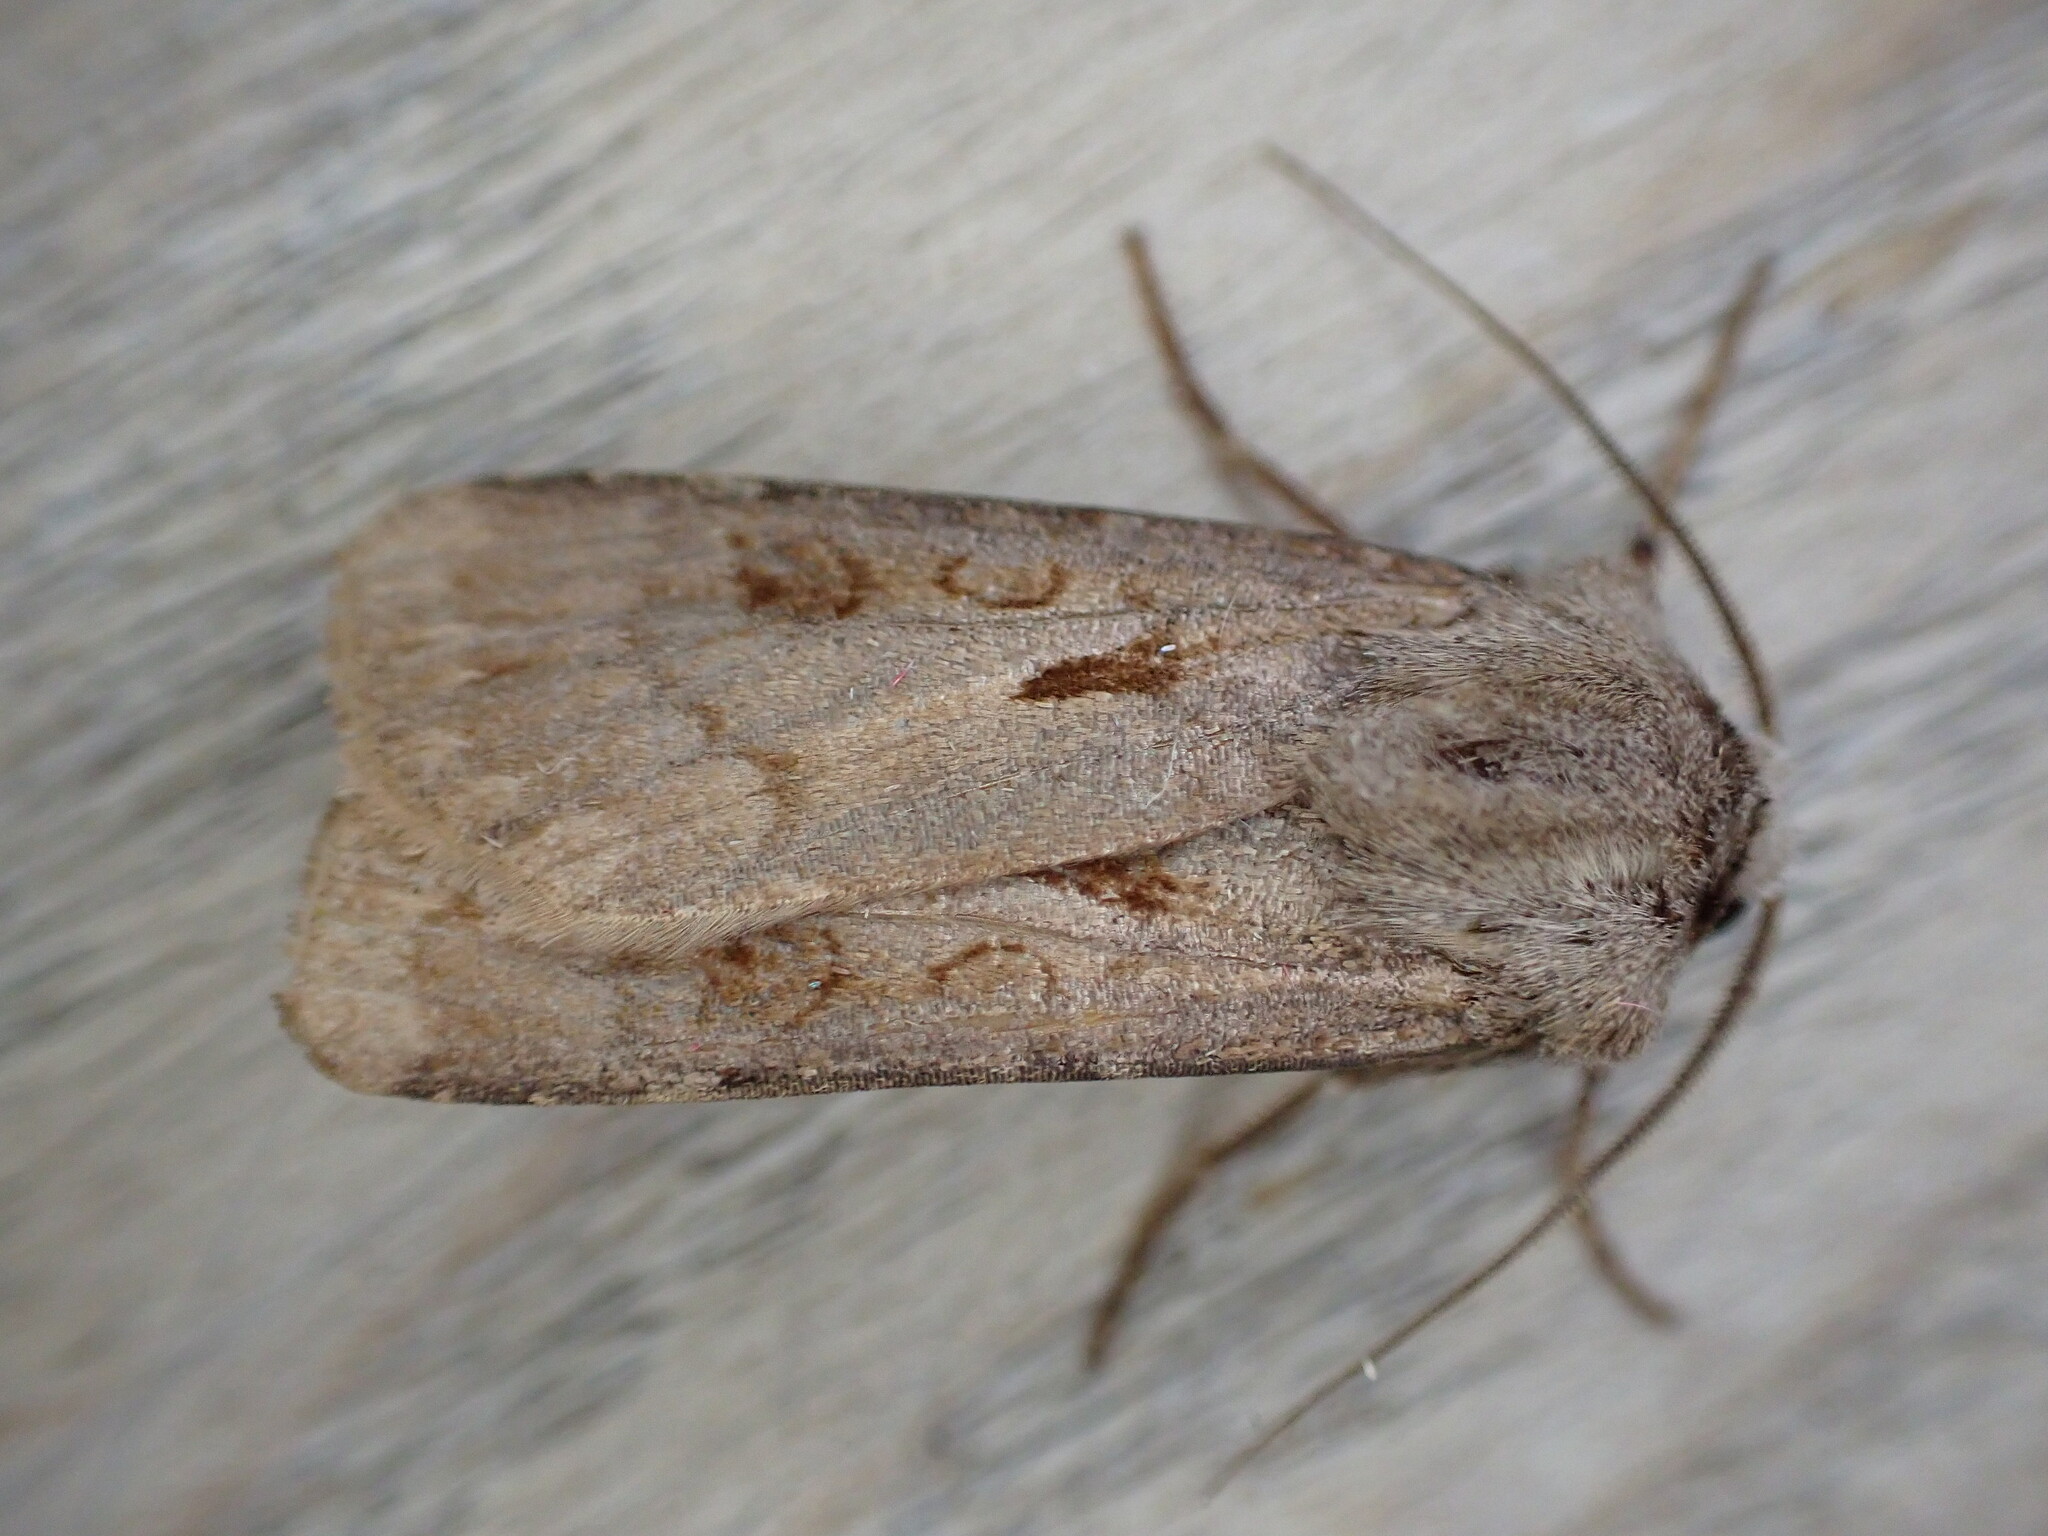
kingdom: Animalia
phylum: Arthropoda
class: Insecta
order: Lepidoptera
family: Noctuidae
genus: Agrotis
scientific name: Agrotis exclamationis
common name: Heart and dart
